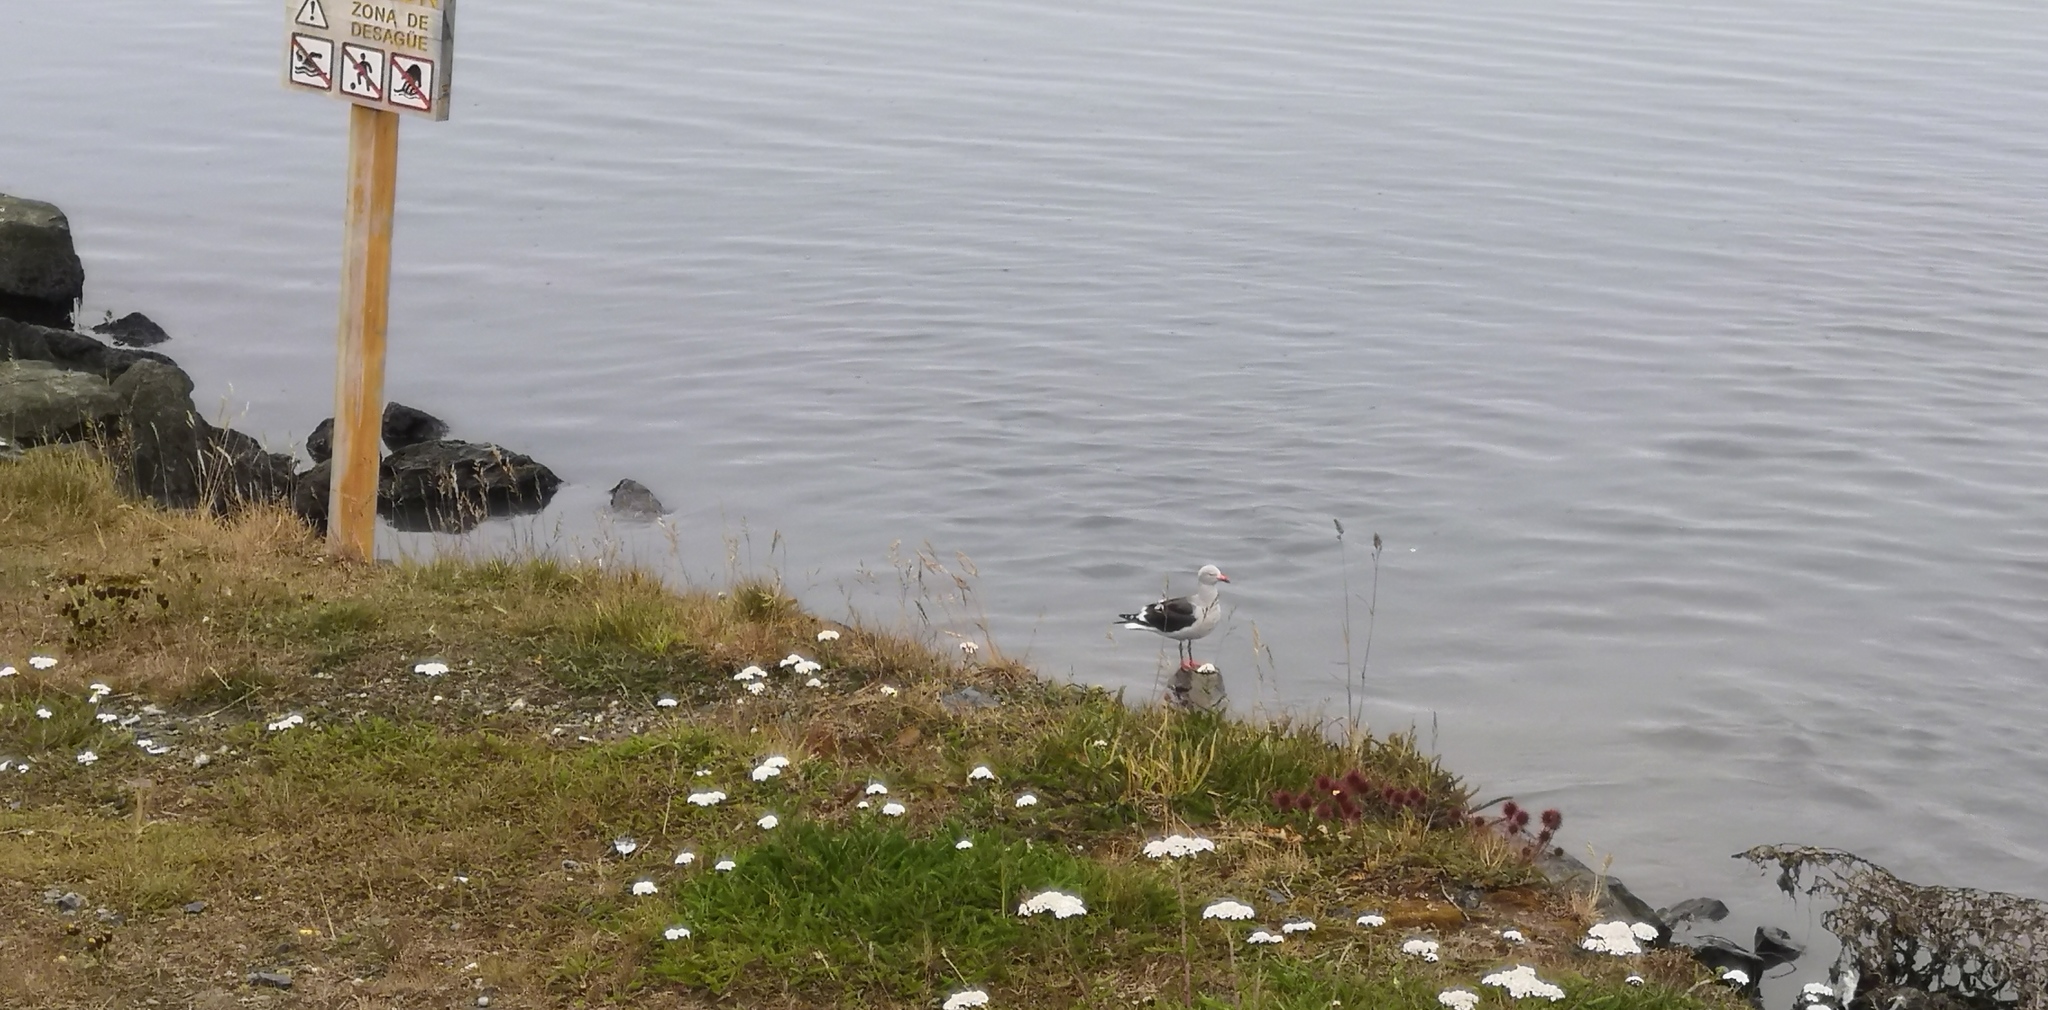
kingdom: Animalia
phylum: Chordata
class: Aves
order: Charadriiformes
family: Laridae
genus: Leucophaeus
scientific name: Leucophaeus scoresbii
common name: Dolphin gull
